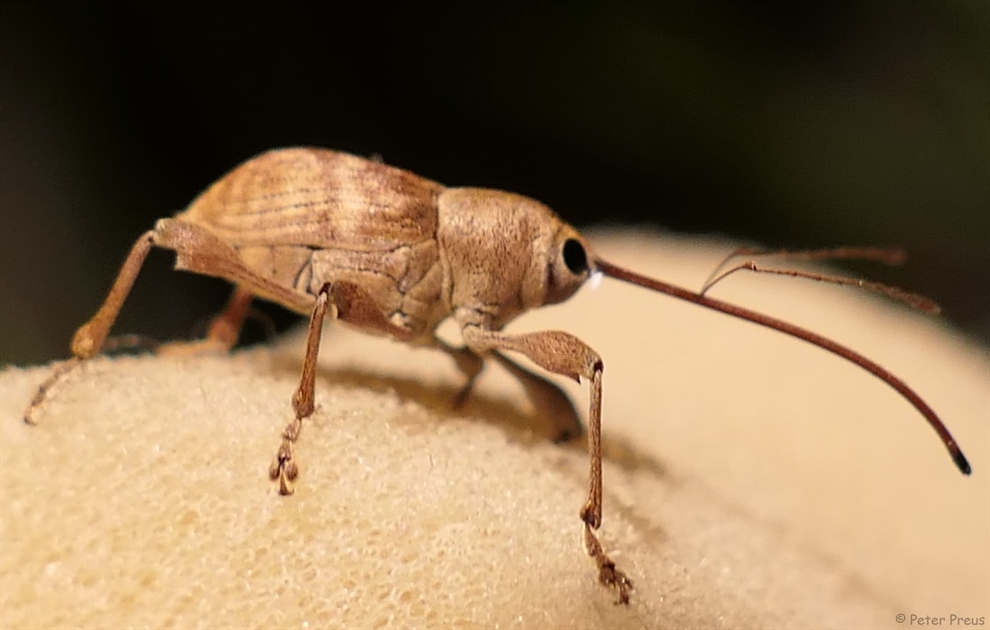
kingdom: Animalia
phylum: Arthropoda
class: Insecta
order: Coleoptera
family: Curculionidae
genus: Curculio
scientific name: Curculio elephas
